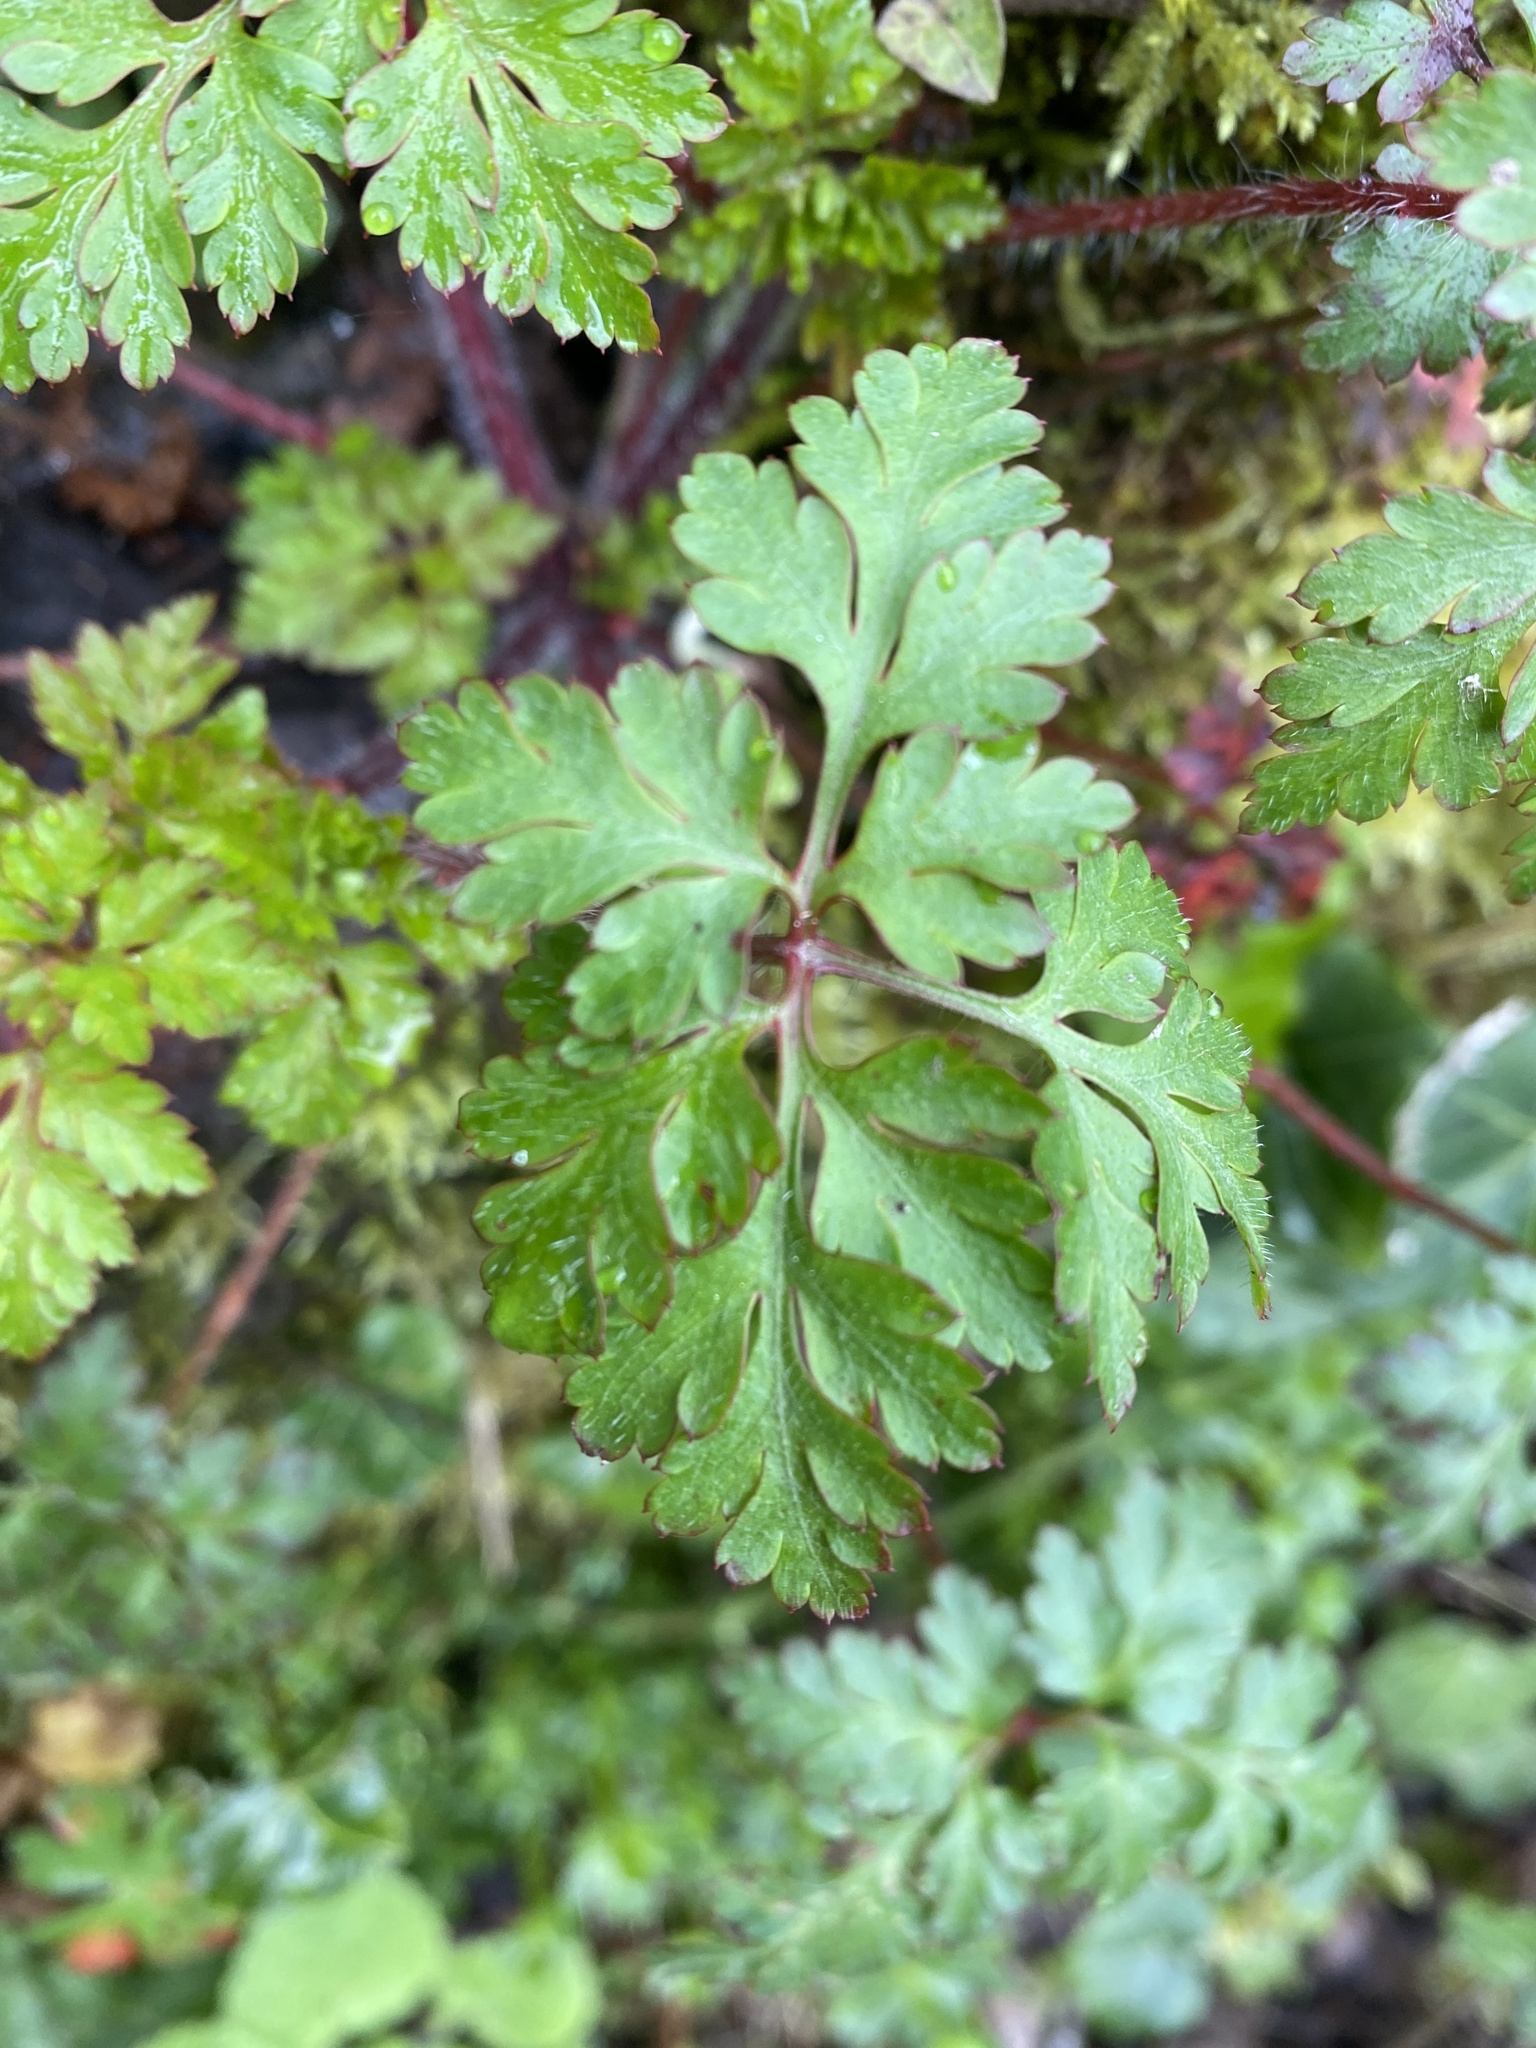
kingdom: Plantae
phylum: Tracheophyta
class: Magnoliopsida
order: Geraniales
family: Geraniaceae
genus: Geranium
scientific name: Geranium robertianum
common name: Herb-robert
